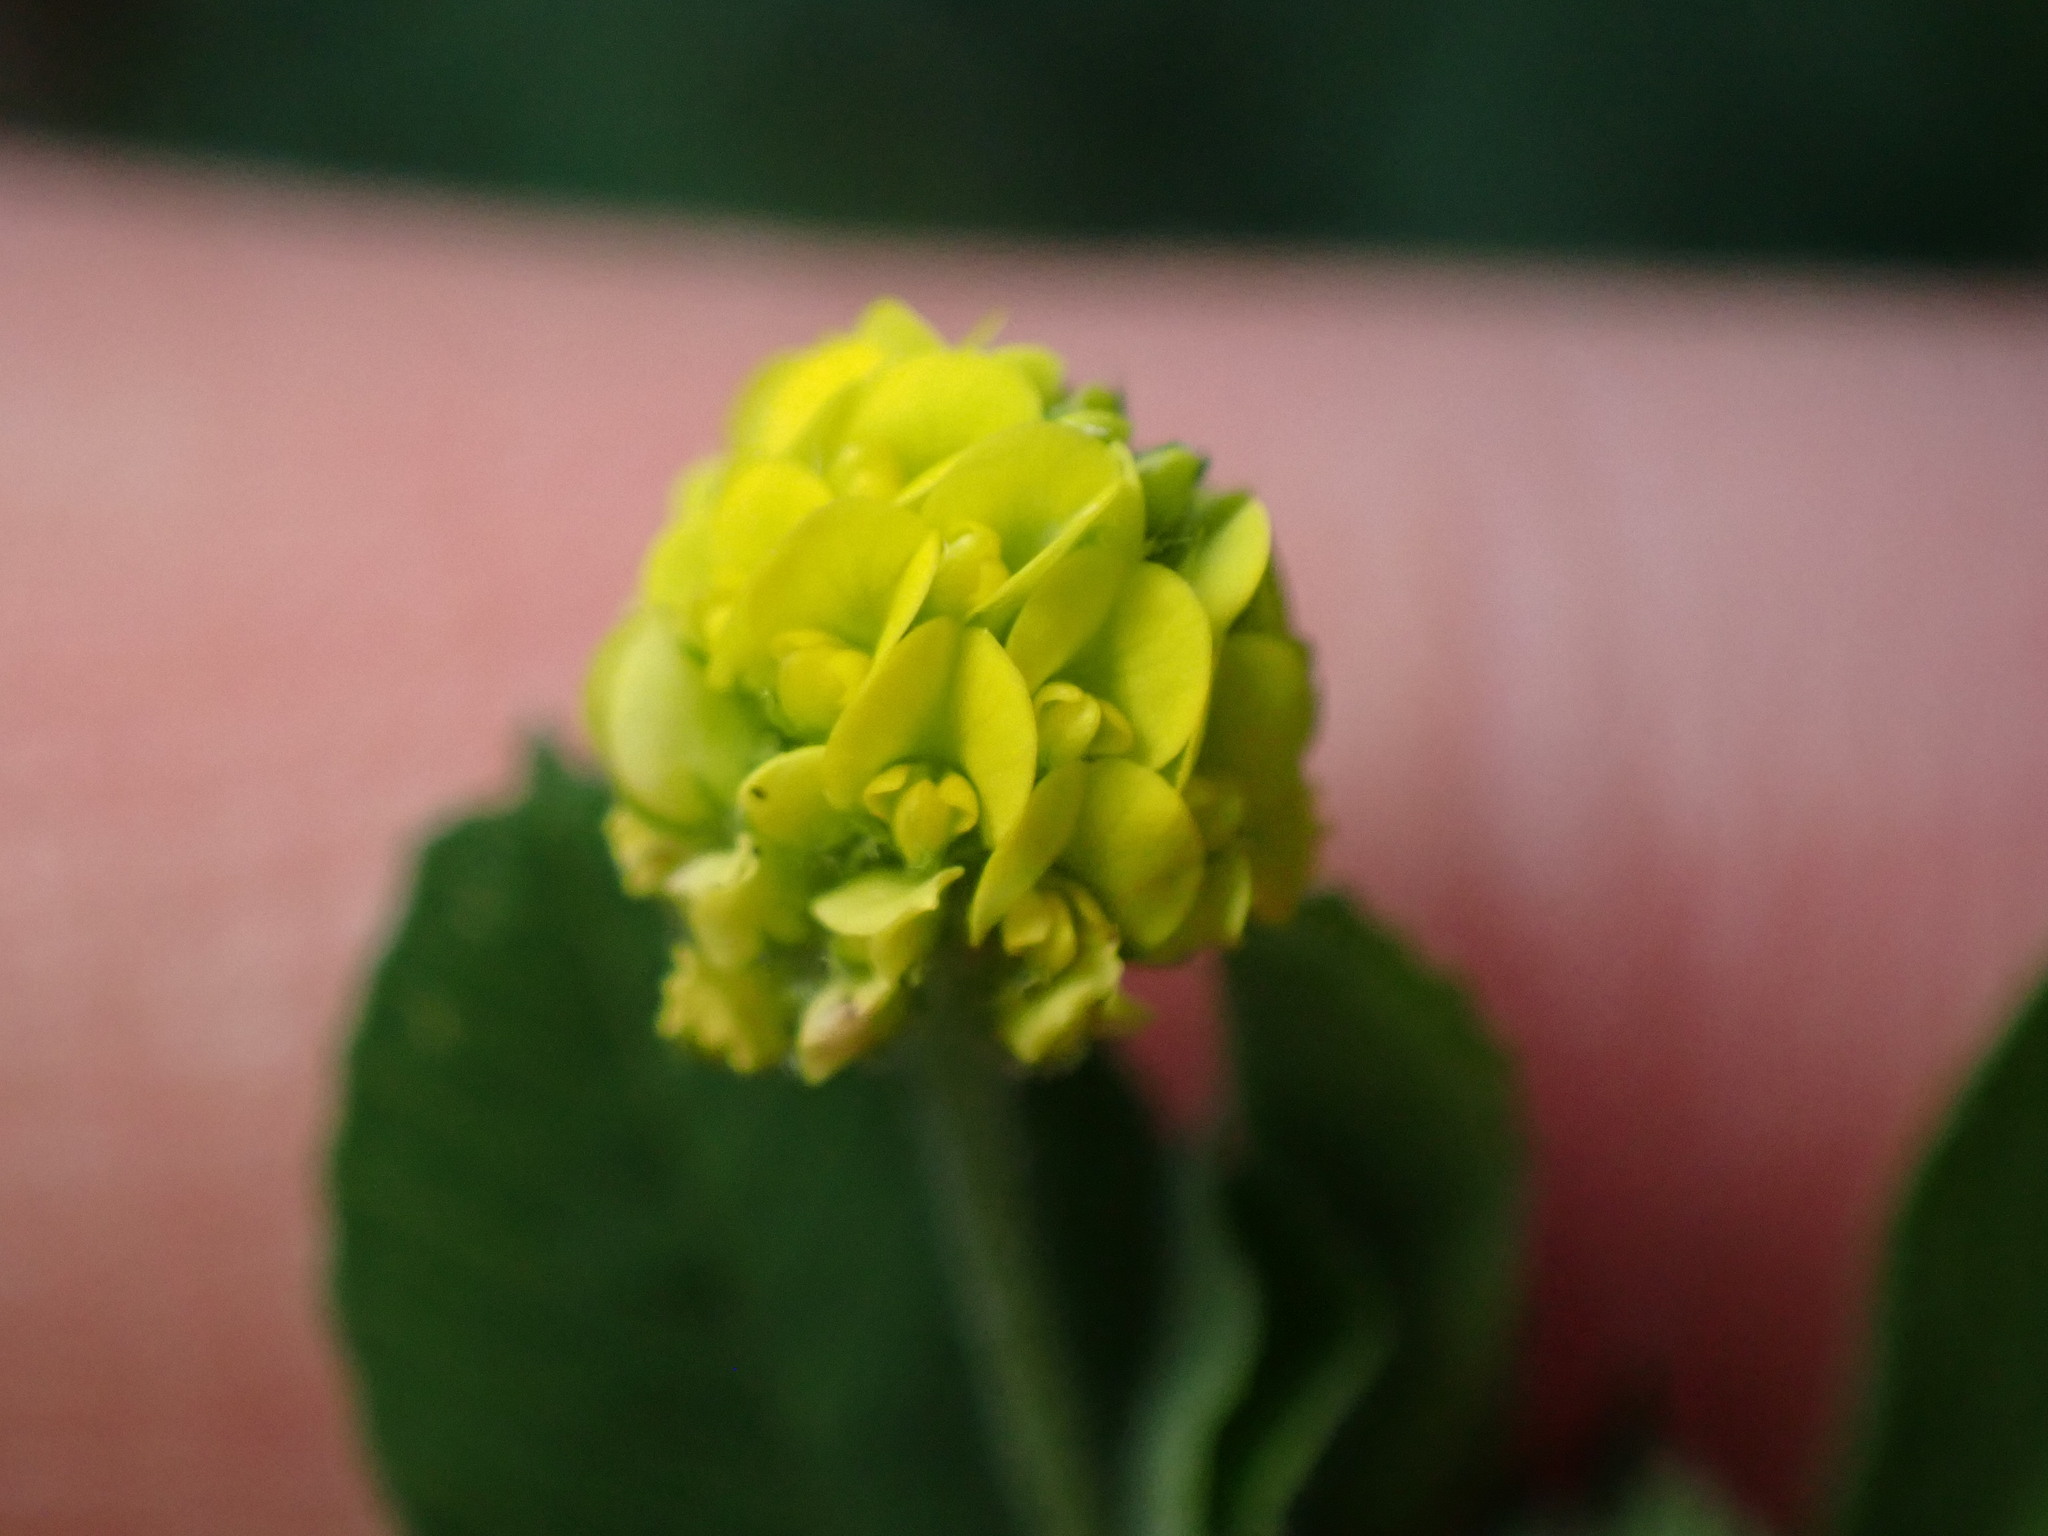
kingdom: Plantae
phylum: Tracheophyta
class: Magnoliopsida
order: Fabales
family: Fabaceae
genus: Medicago
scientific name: Medicago lupulina
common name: Black medick
